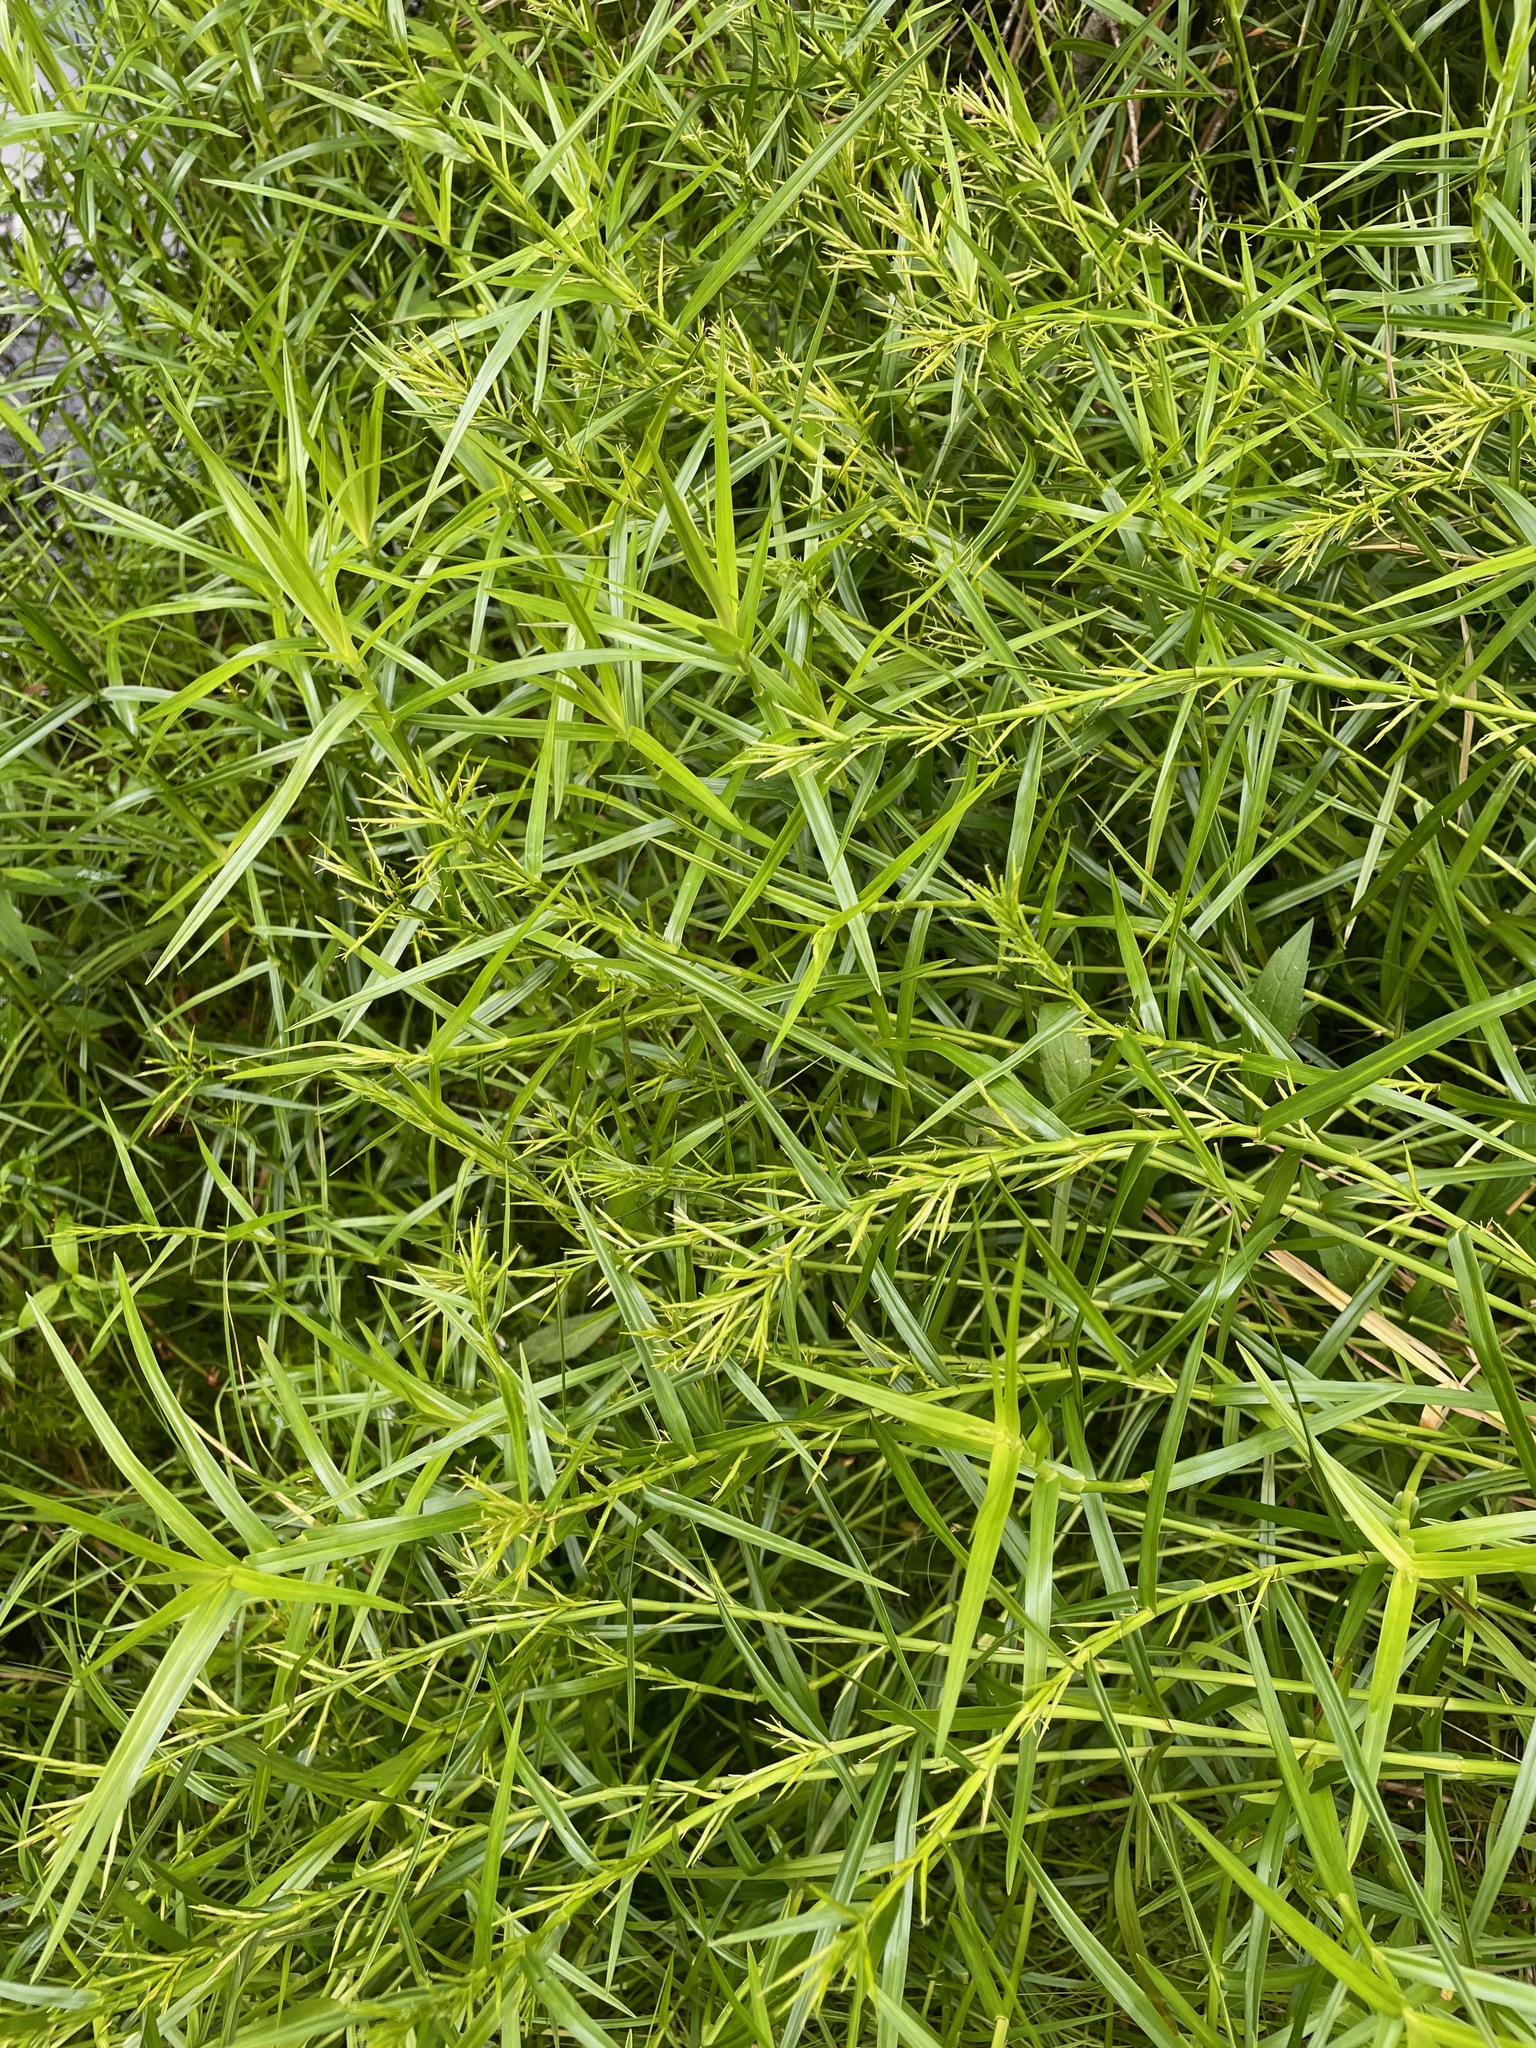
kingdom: Plantae
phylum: Tracheophyta
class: Liliopsida
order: Poales
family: Cyperaceae
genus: Dulichium
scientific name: Dulichium arundinaceum
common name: Three-way sedge
